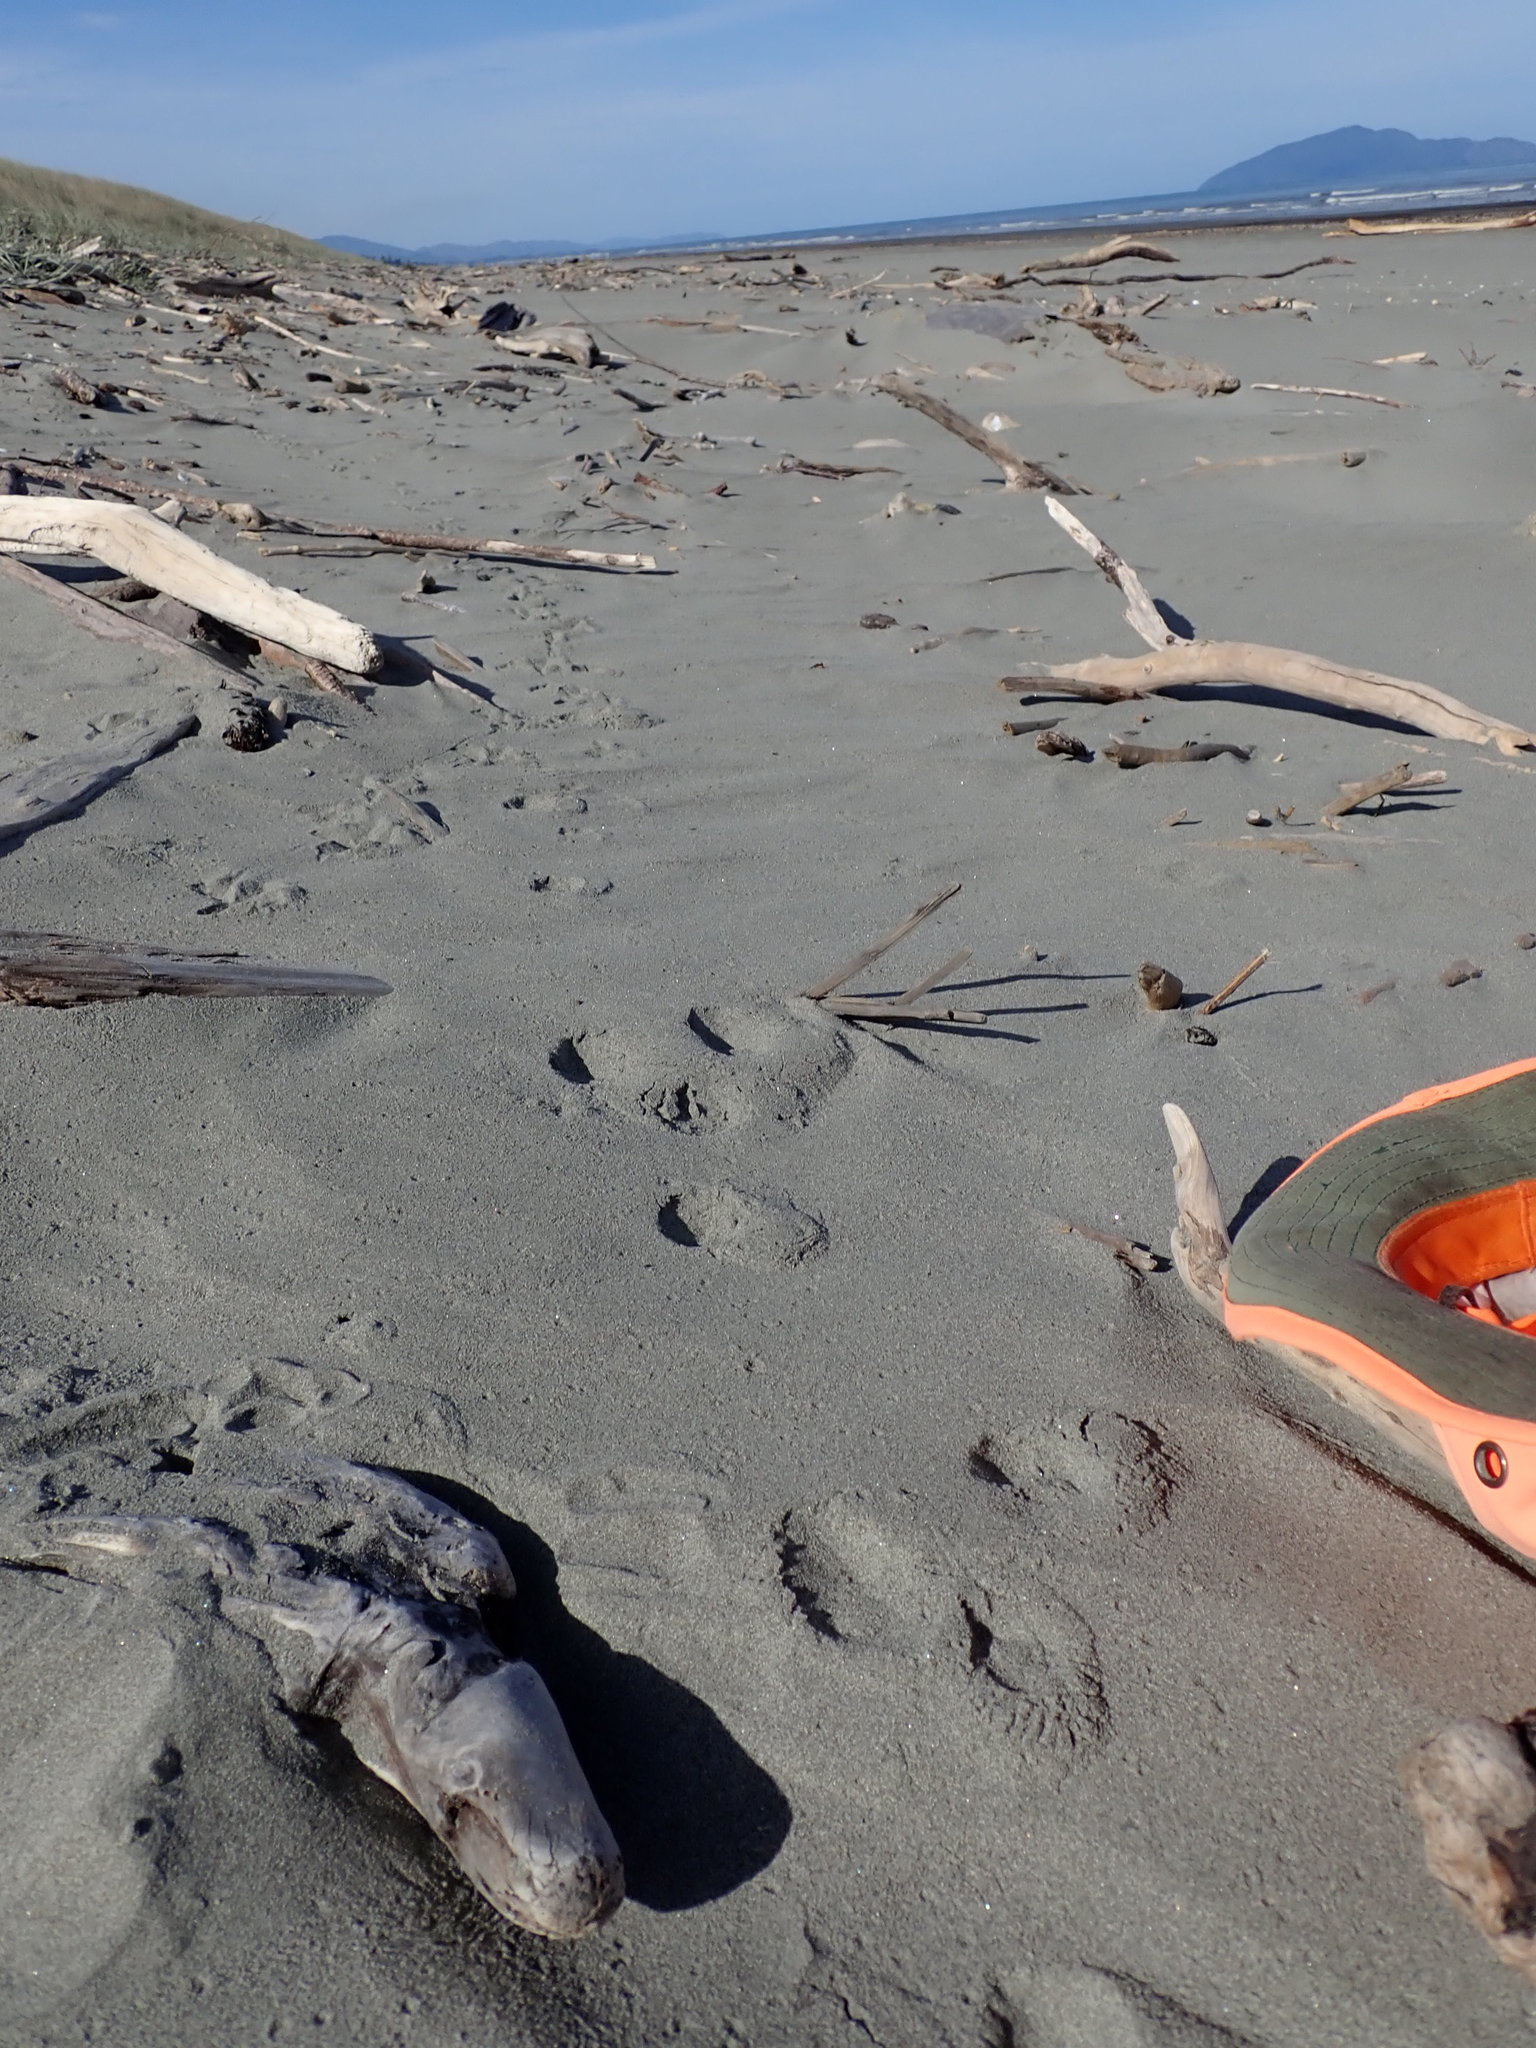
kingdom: Animalia
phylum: Arthropoda
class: Arachnida
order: Araneae
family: Lycosidae
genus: Anoteropsis
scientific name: Anoteropsis litoralis
